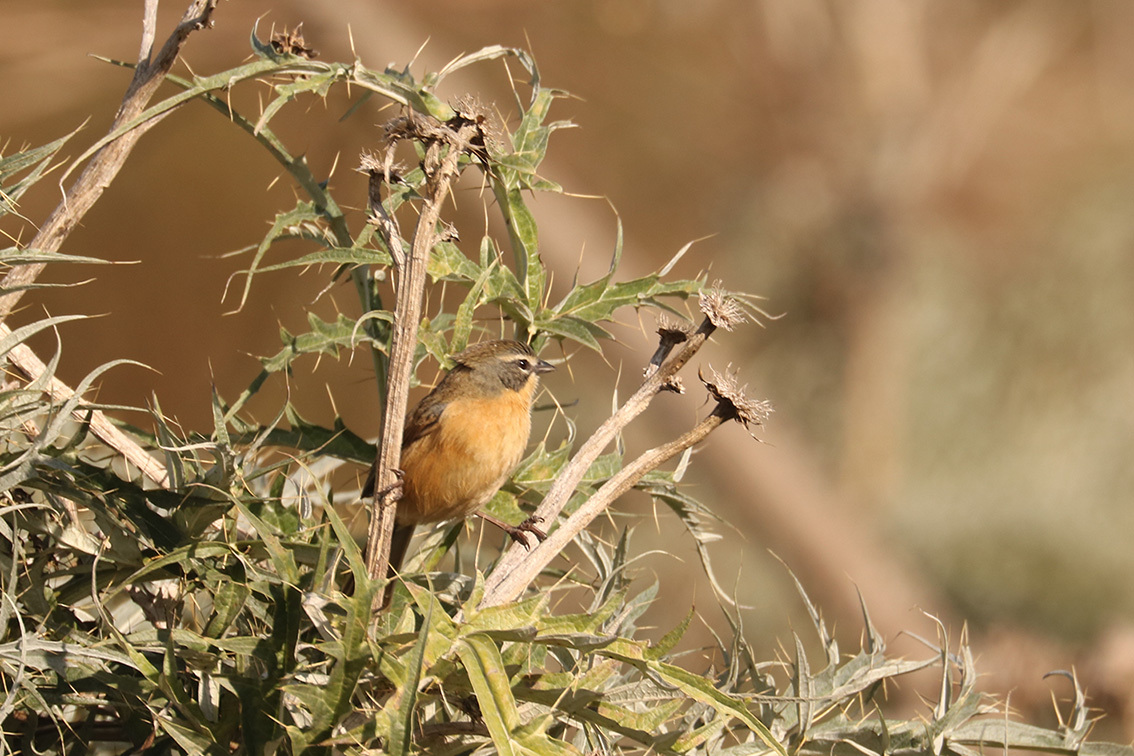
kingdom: Animalia
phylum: Chordata
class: Aves
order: Passeriformes
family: Thraupidae
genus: Donacospiza
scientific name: Donacospiza albifrons
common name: Long-tailed reed finch
